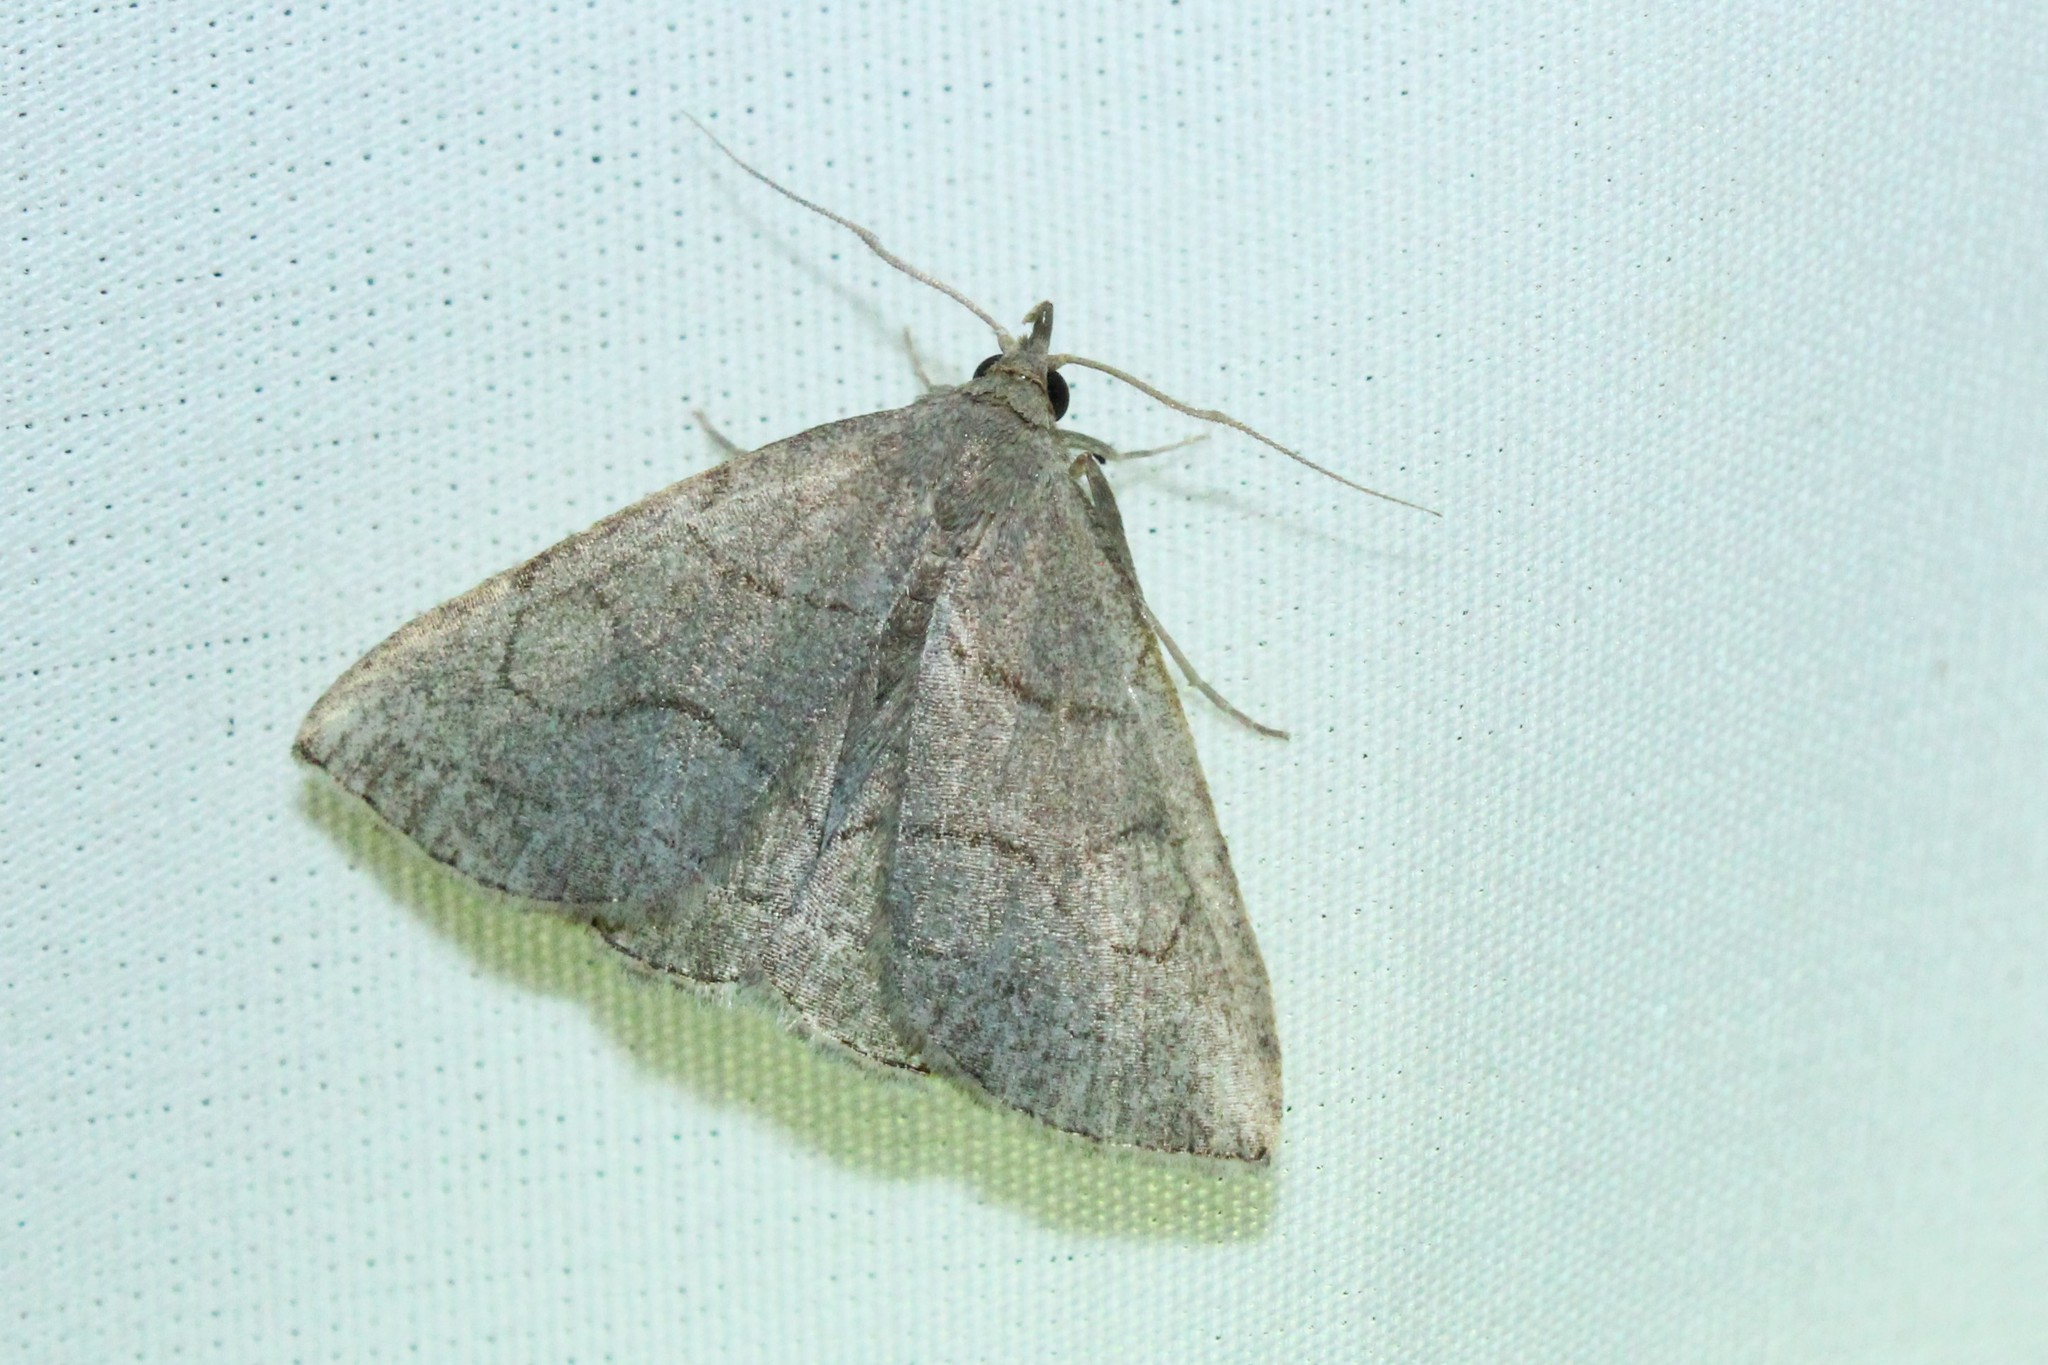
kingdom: Animalia
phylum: Arthropoda
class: Insecta
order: Lepidoptera
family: Erebidae
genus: Zanclognatha
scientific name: Zanclognatha pedipilalis
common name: Grayish fan-foot
